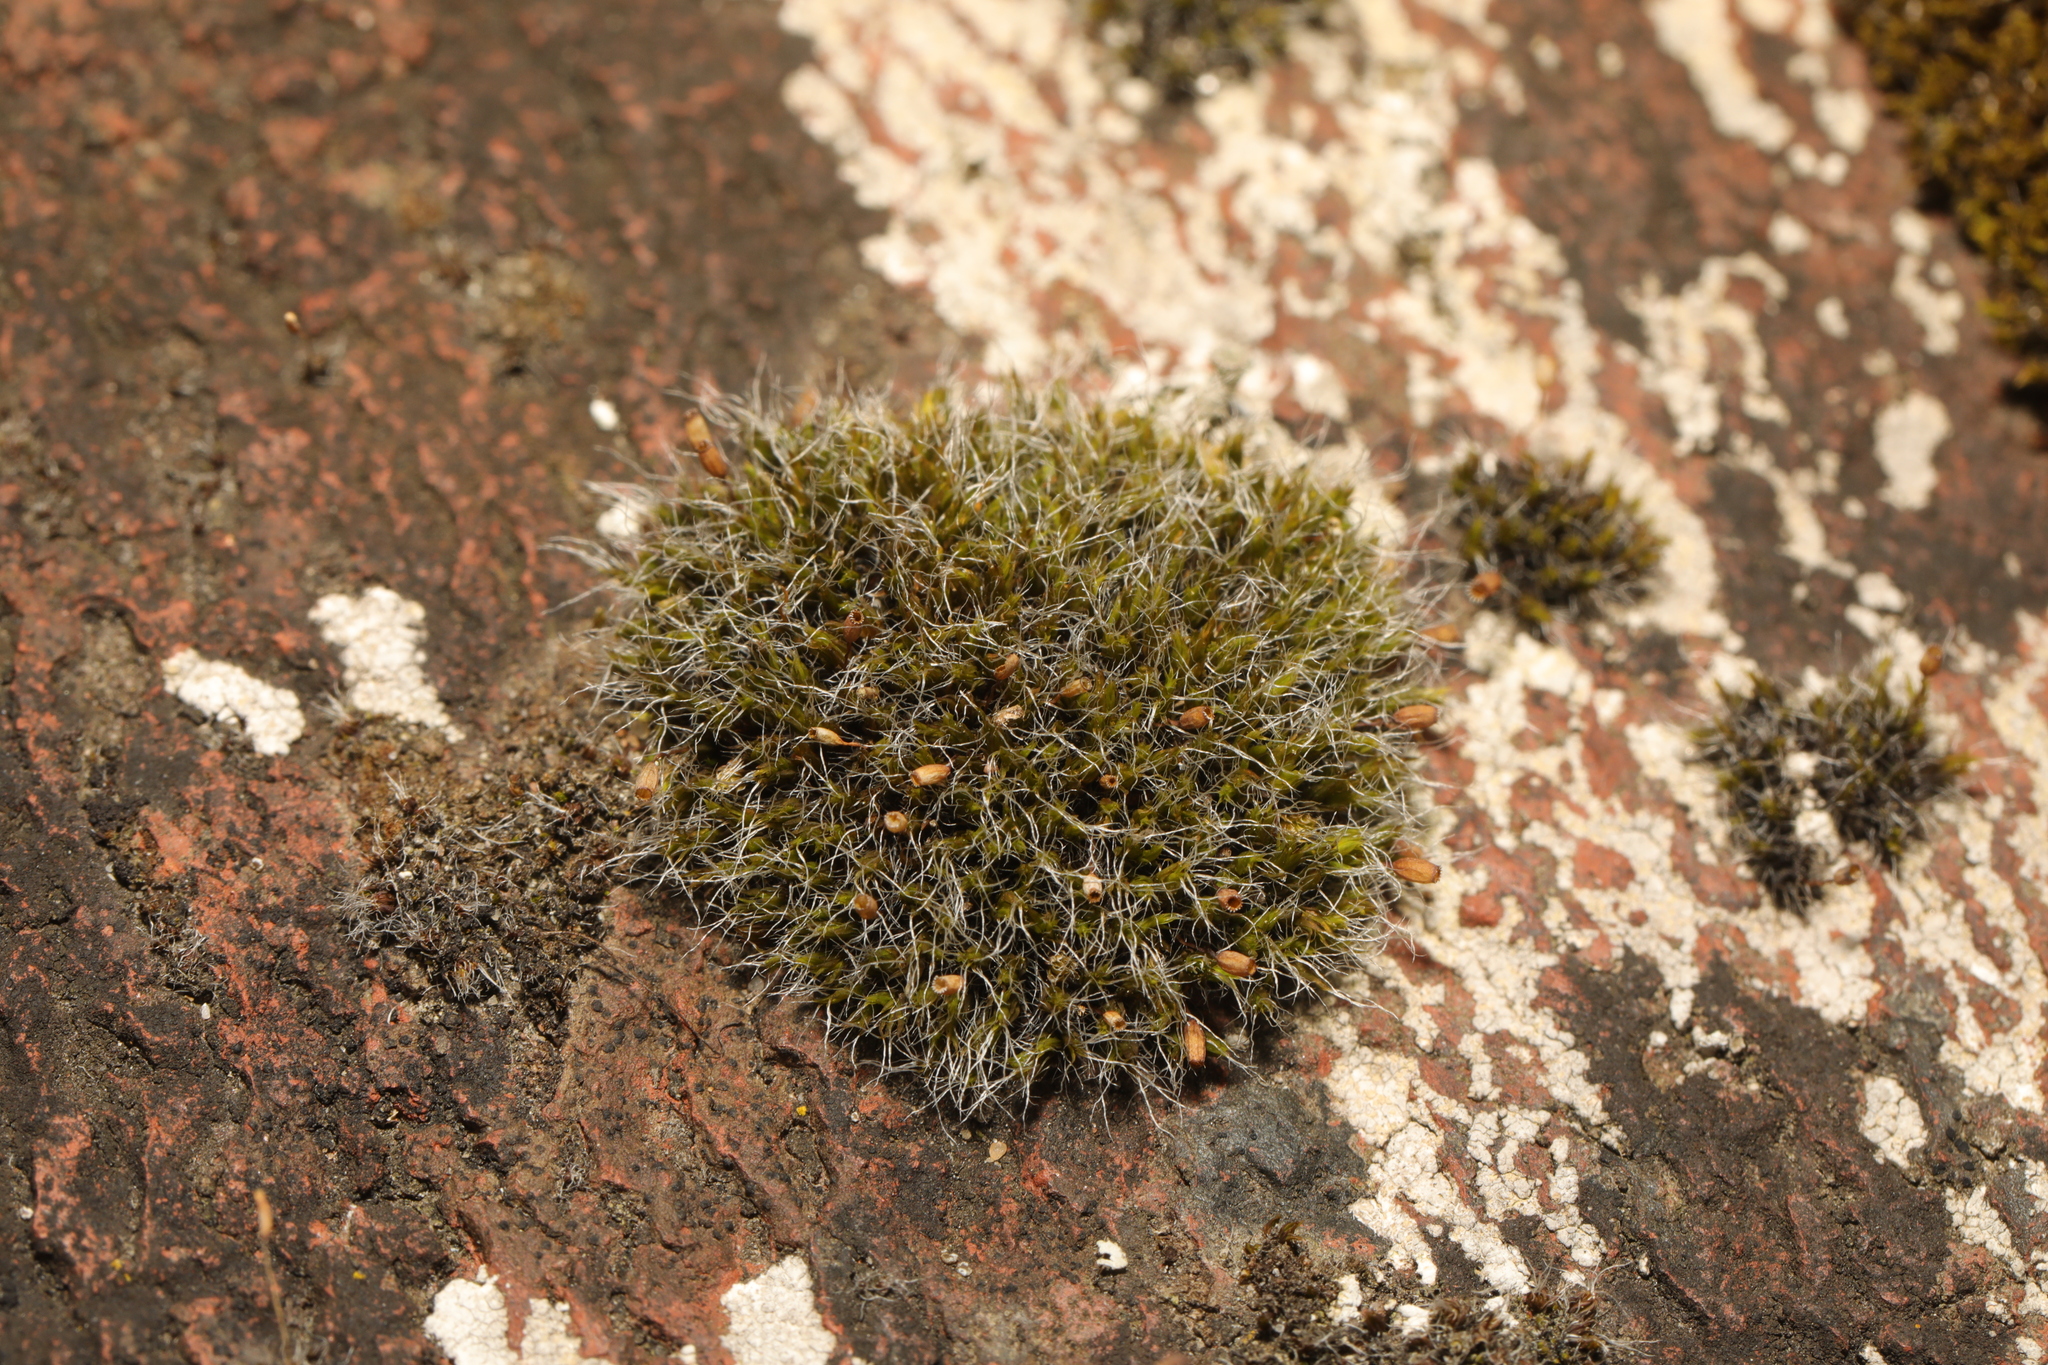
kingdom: Plantae
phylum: Bryophyta
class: Bryopsida
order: Grimmiales
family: Grimmiaceae
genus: Grimmia
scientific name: Grimmia pulvinata
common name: Grey-cushioned grimmia
